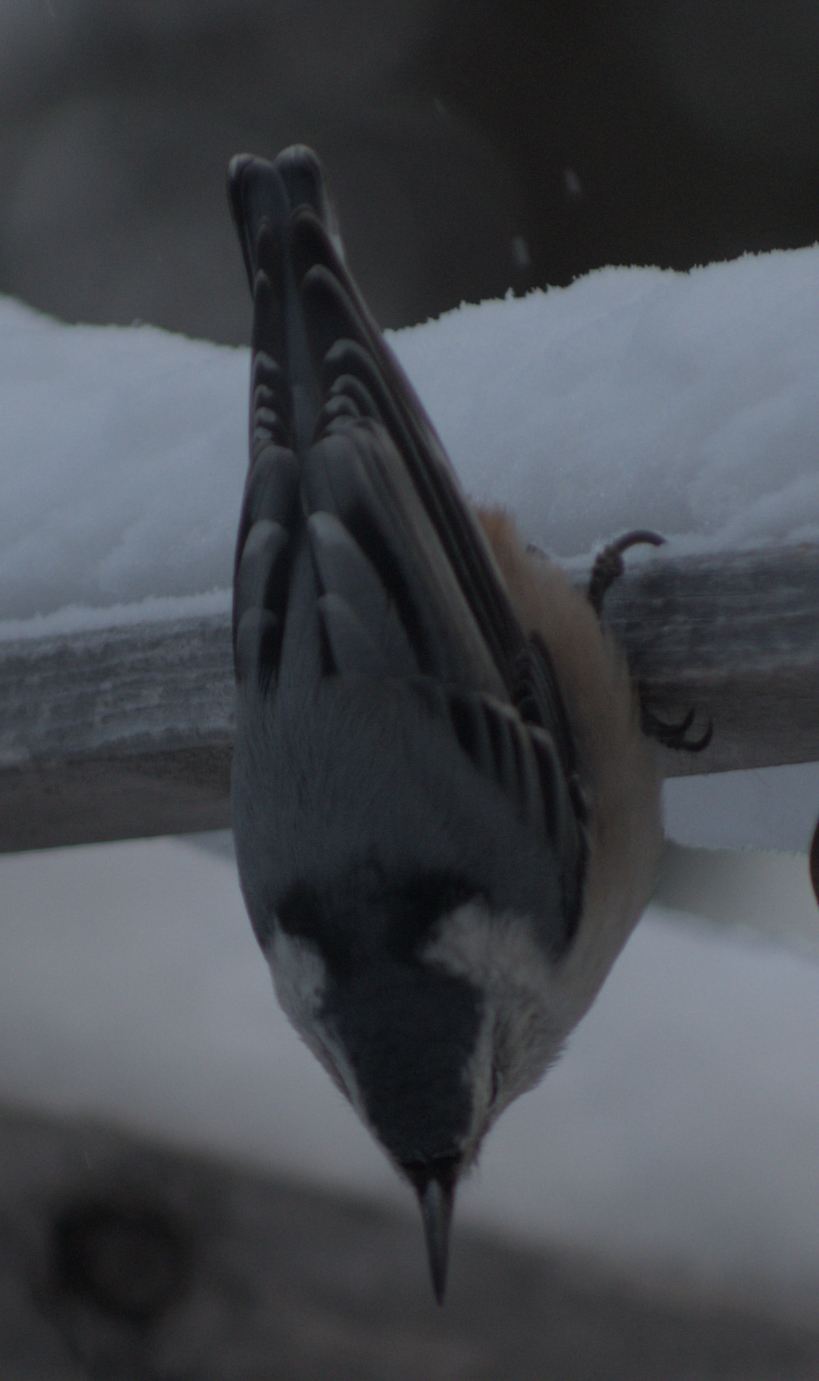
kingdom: Animalia
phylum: Chordata
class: Aves
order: Passeriformes
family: Sittidae
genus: Sitta
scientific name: Sitta carolinensis
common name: White-breasted nuthatch
